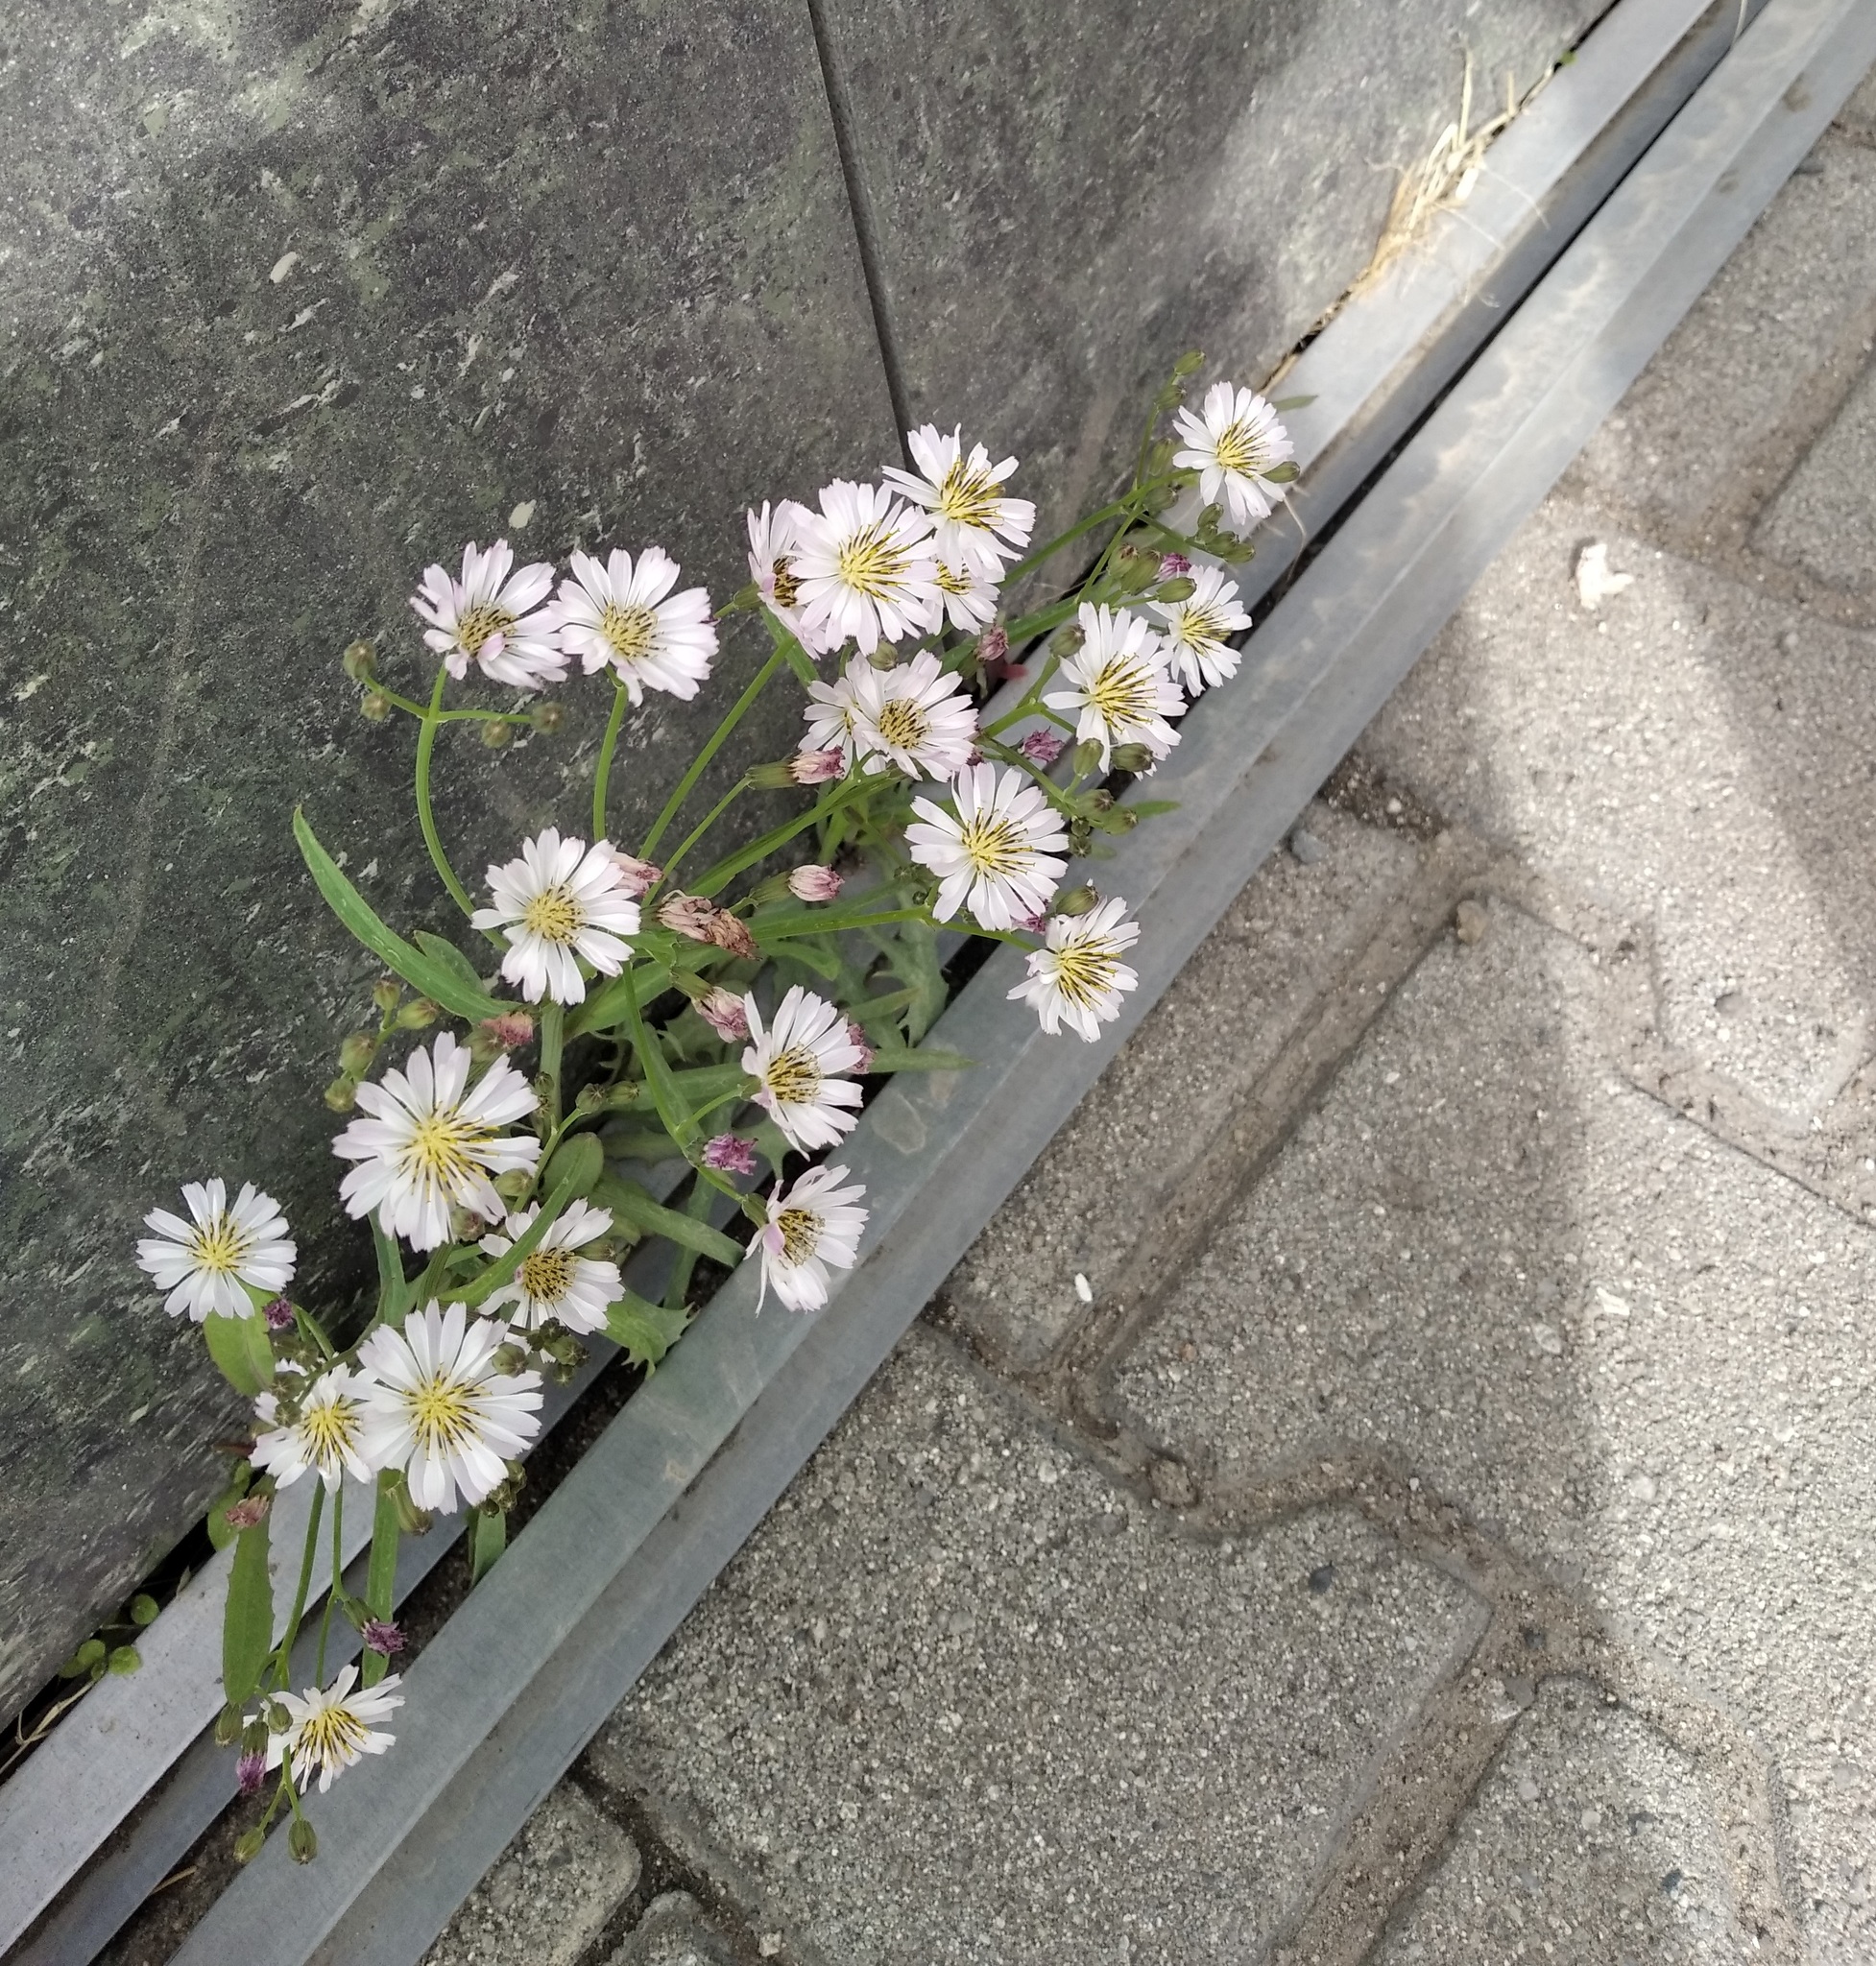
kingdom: Plantae
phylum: Tracheophyta
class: Magnoliopsida
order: Asterales
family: Asteraceae
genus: Ixeris
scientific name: Ixeris chinensis
